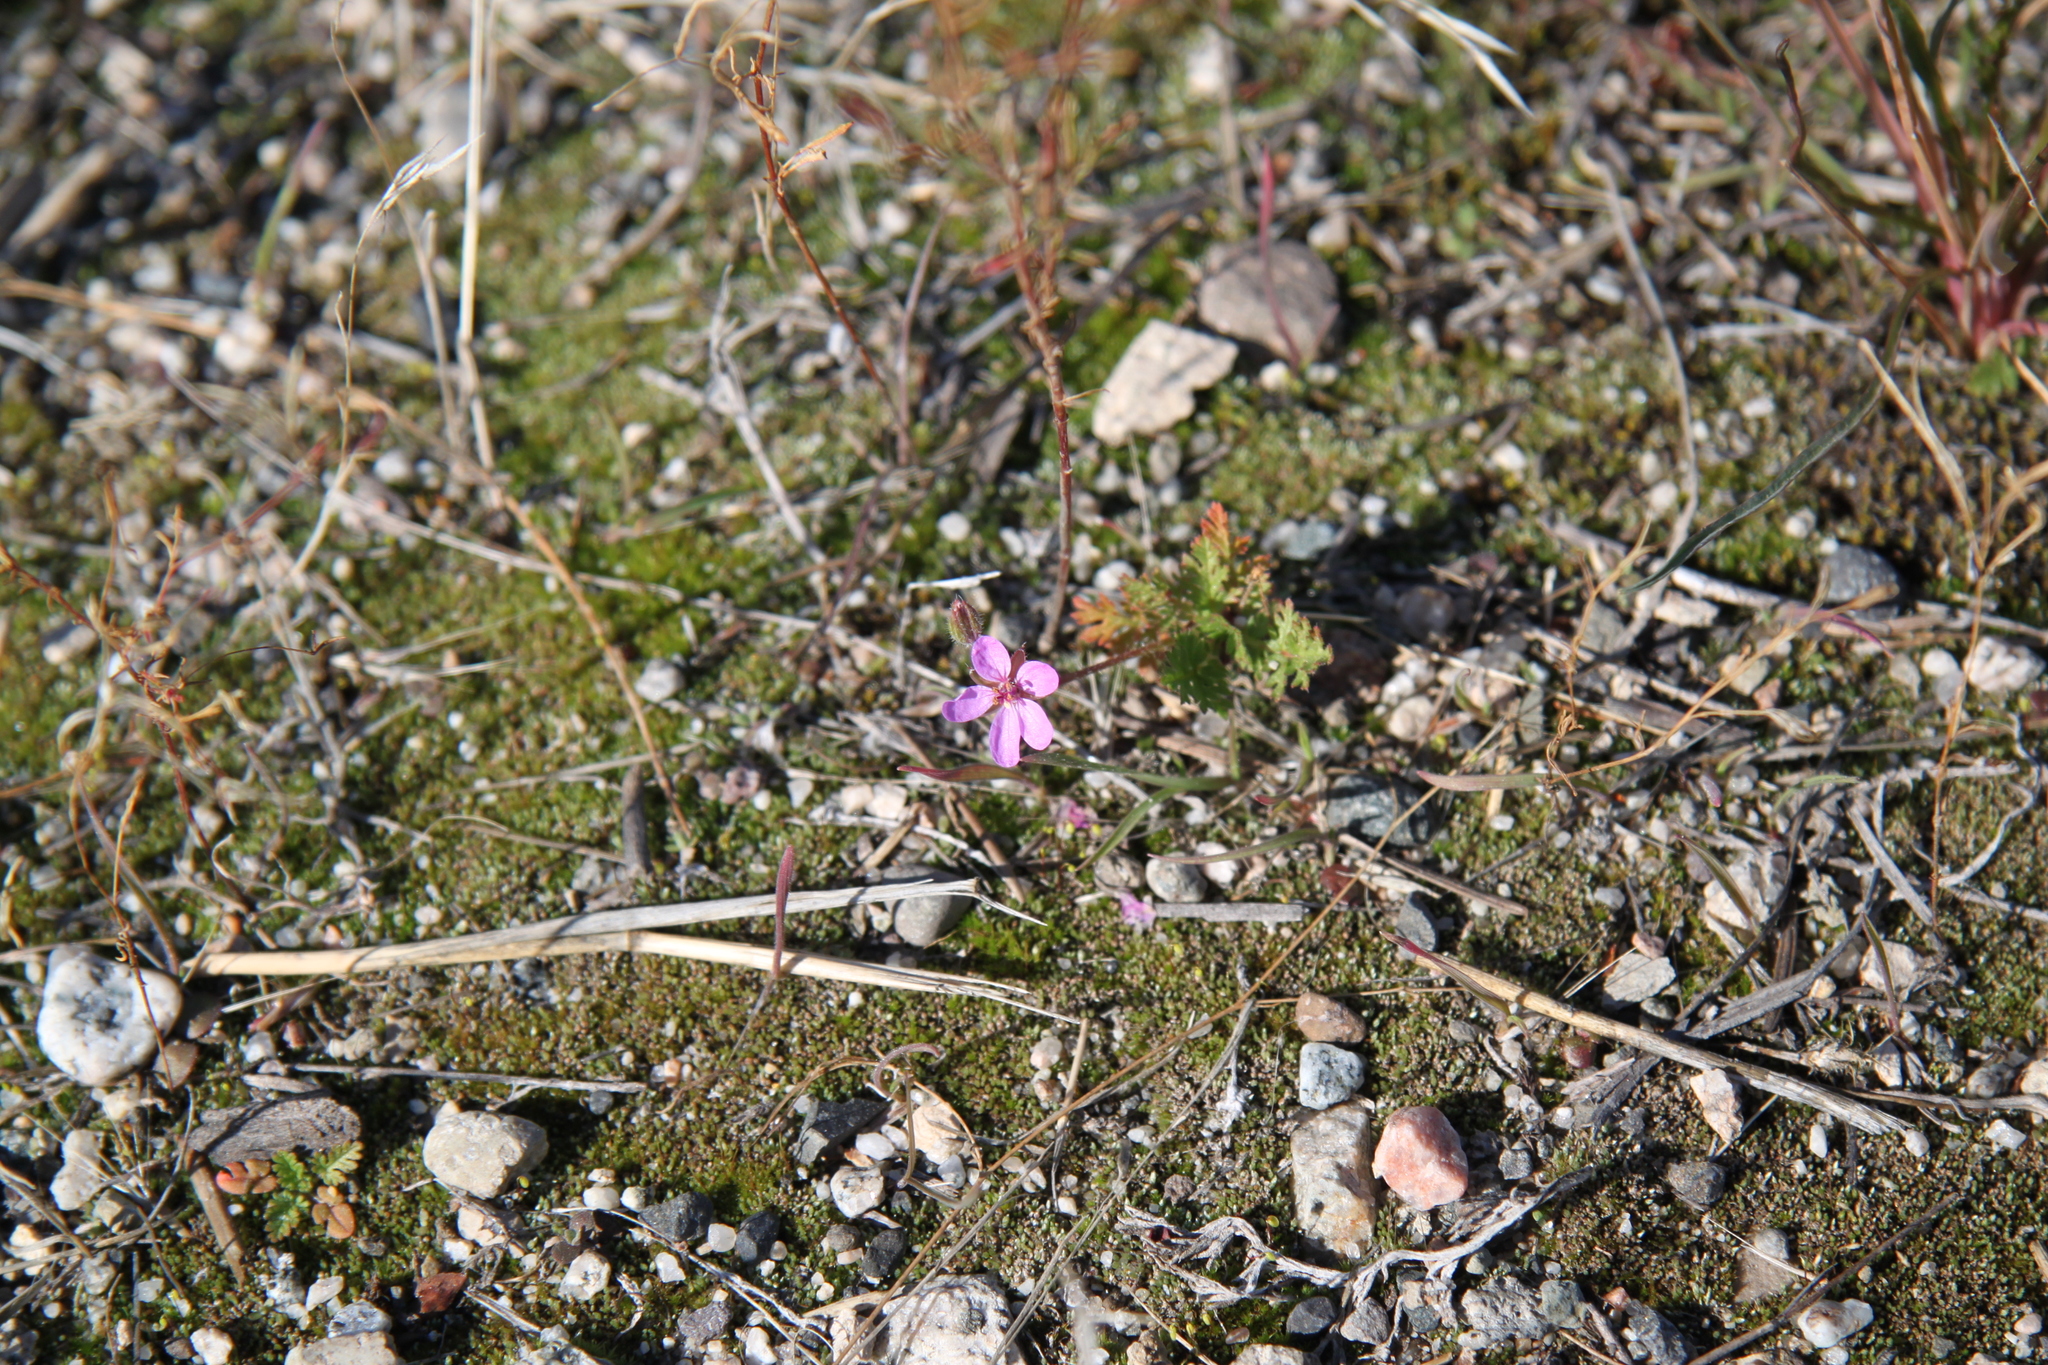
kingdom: Plantae
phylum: Tracheophyta
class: Magnoliopsida
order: Geraniales
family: Geraniaceae
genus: Erodium
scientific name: Erodium cicutarium
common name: Common stork's-bill
